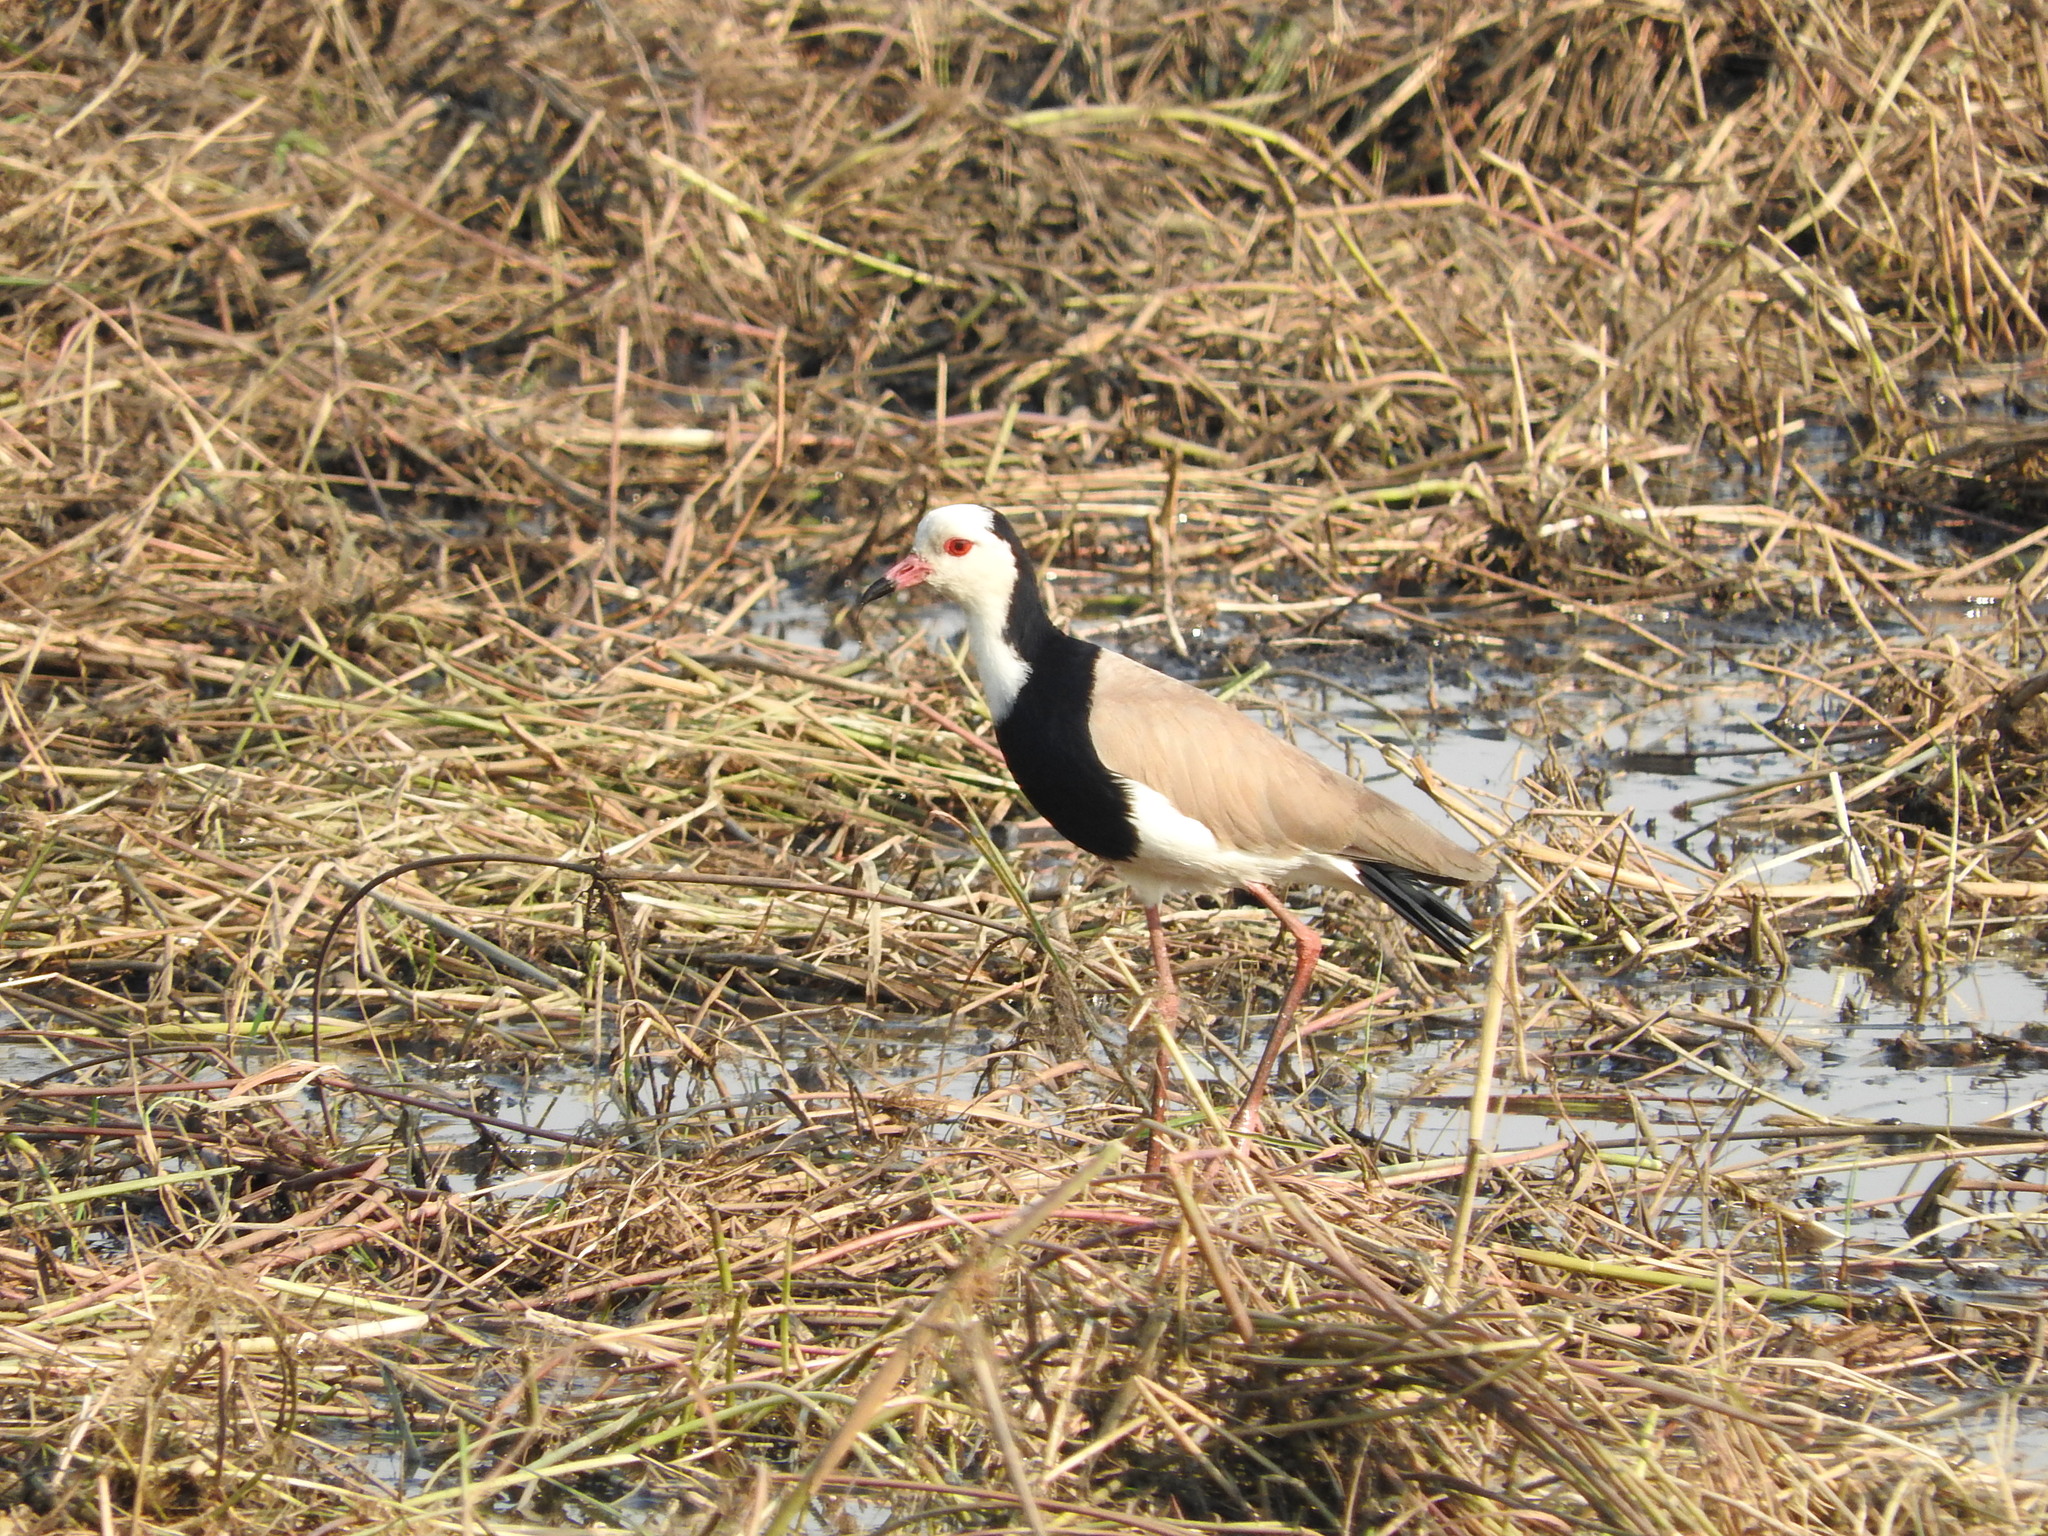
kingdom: Animalia
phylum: Chordata
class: Aves
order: Charadriiformes
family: Charadriidae
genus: Vanellus
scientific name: Vanellus crassirostris
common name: Long-toed lapwing
